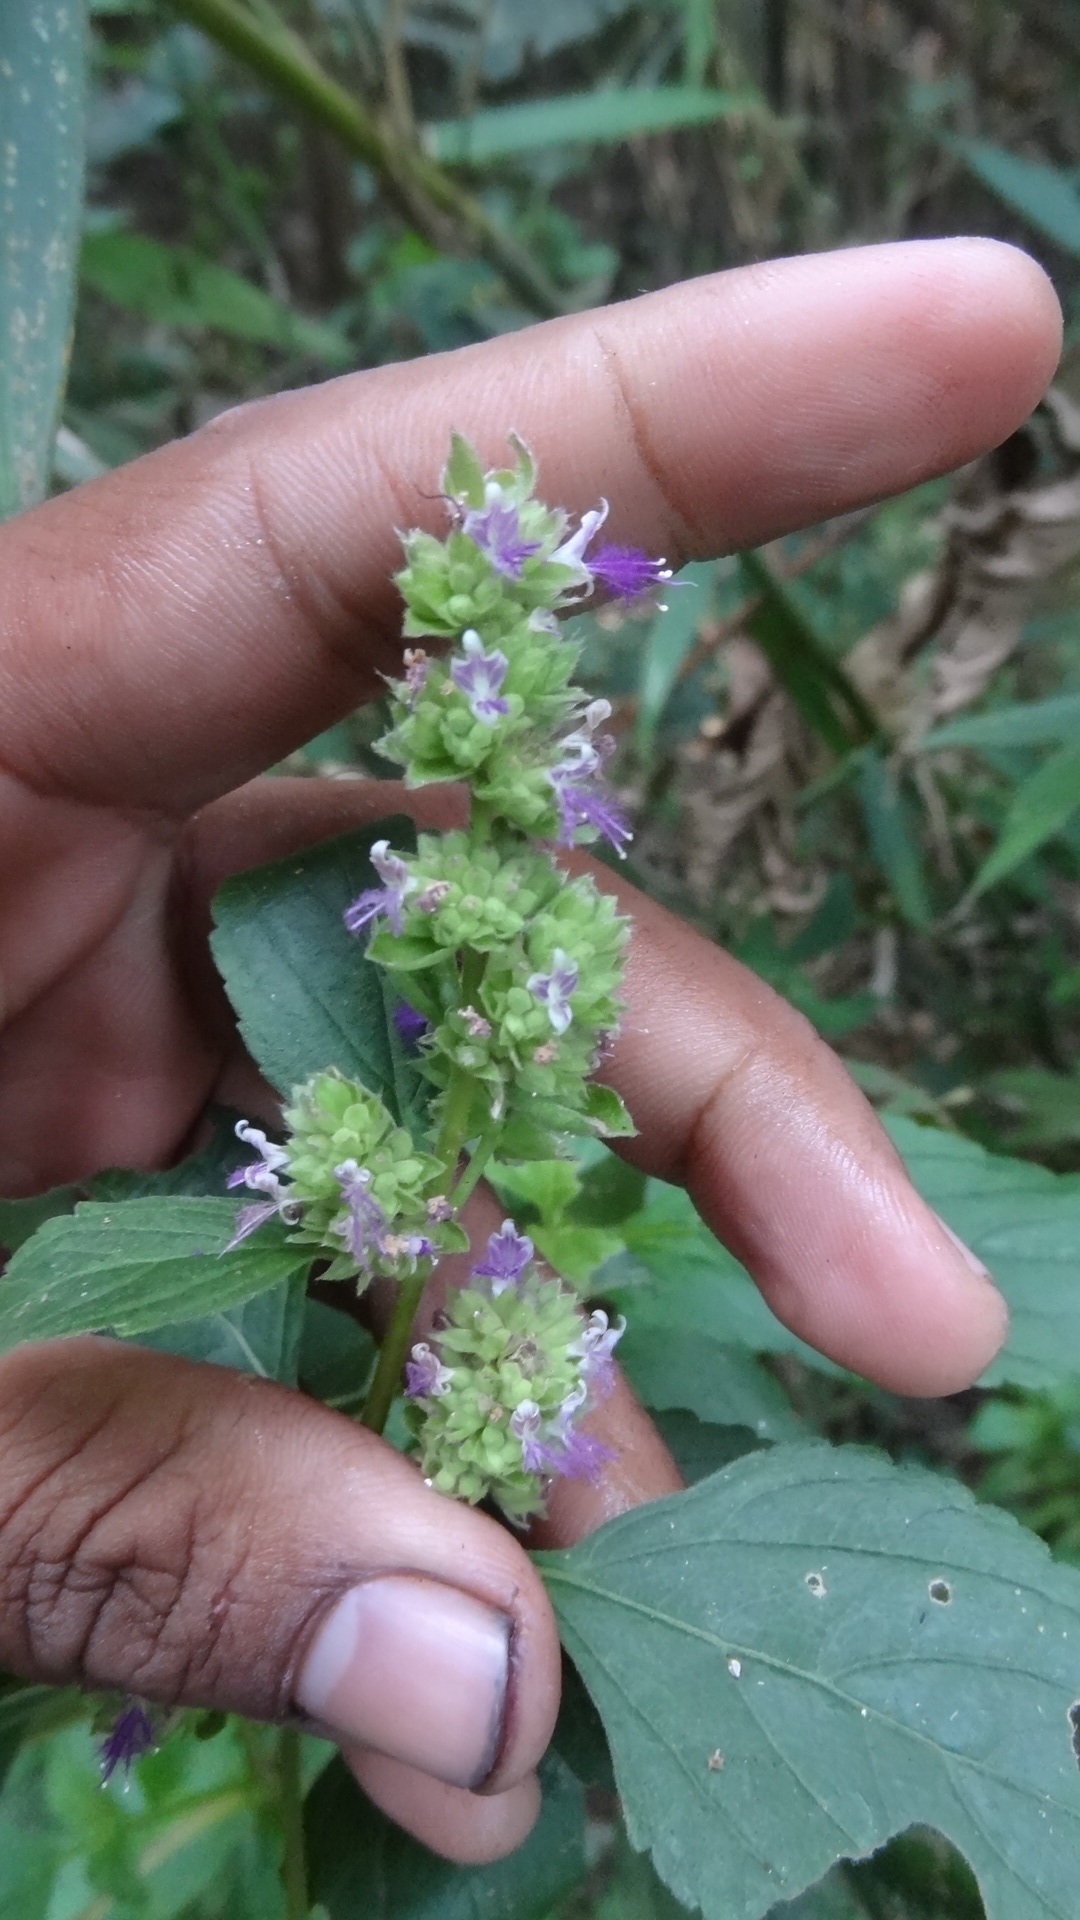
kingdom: Plantae
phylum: Tracheophyta
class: Magnoliopsida
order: Lamiales
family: Lamiaceae
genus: Pogostemon
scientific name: Pogostemon benghalensis
